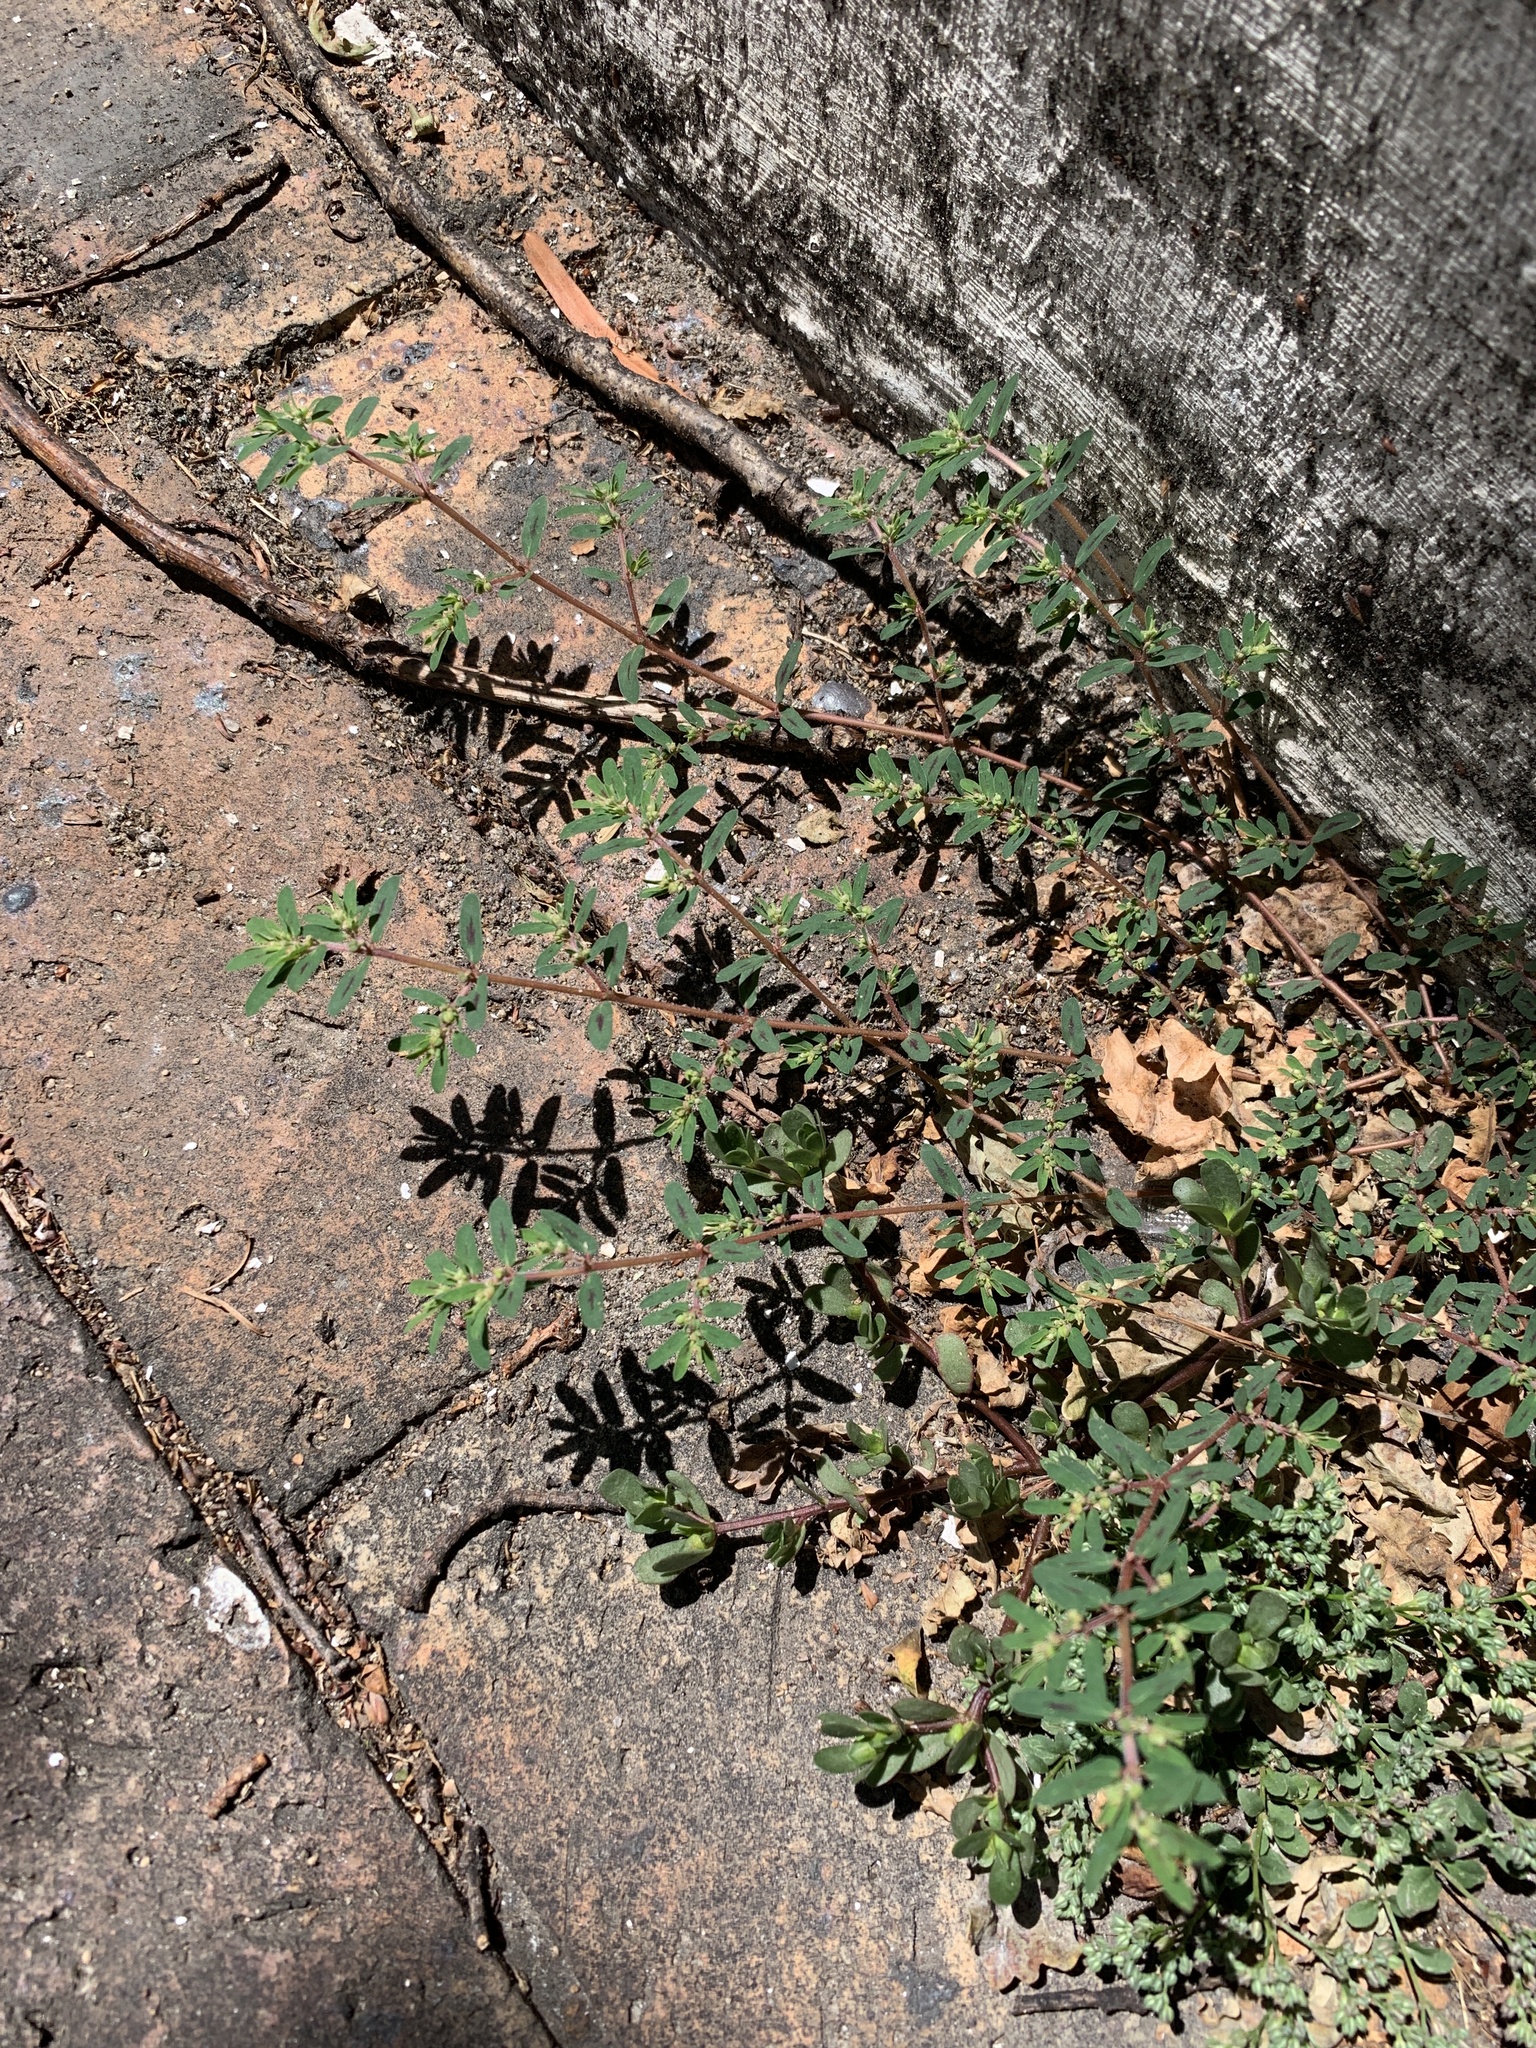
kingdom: Plantae
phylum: Tracheophyta
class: Magnoliopsida
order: Malpighiales
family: Euphorbiaceae
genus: Euphorbia
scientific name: Euphorbia maculata
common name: Spotted spurge
